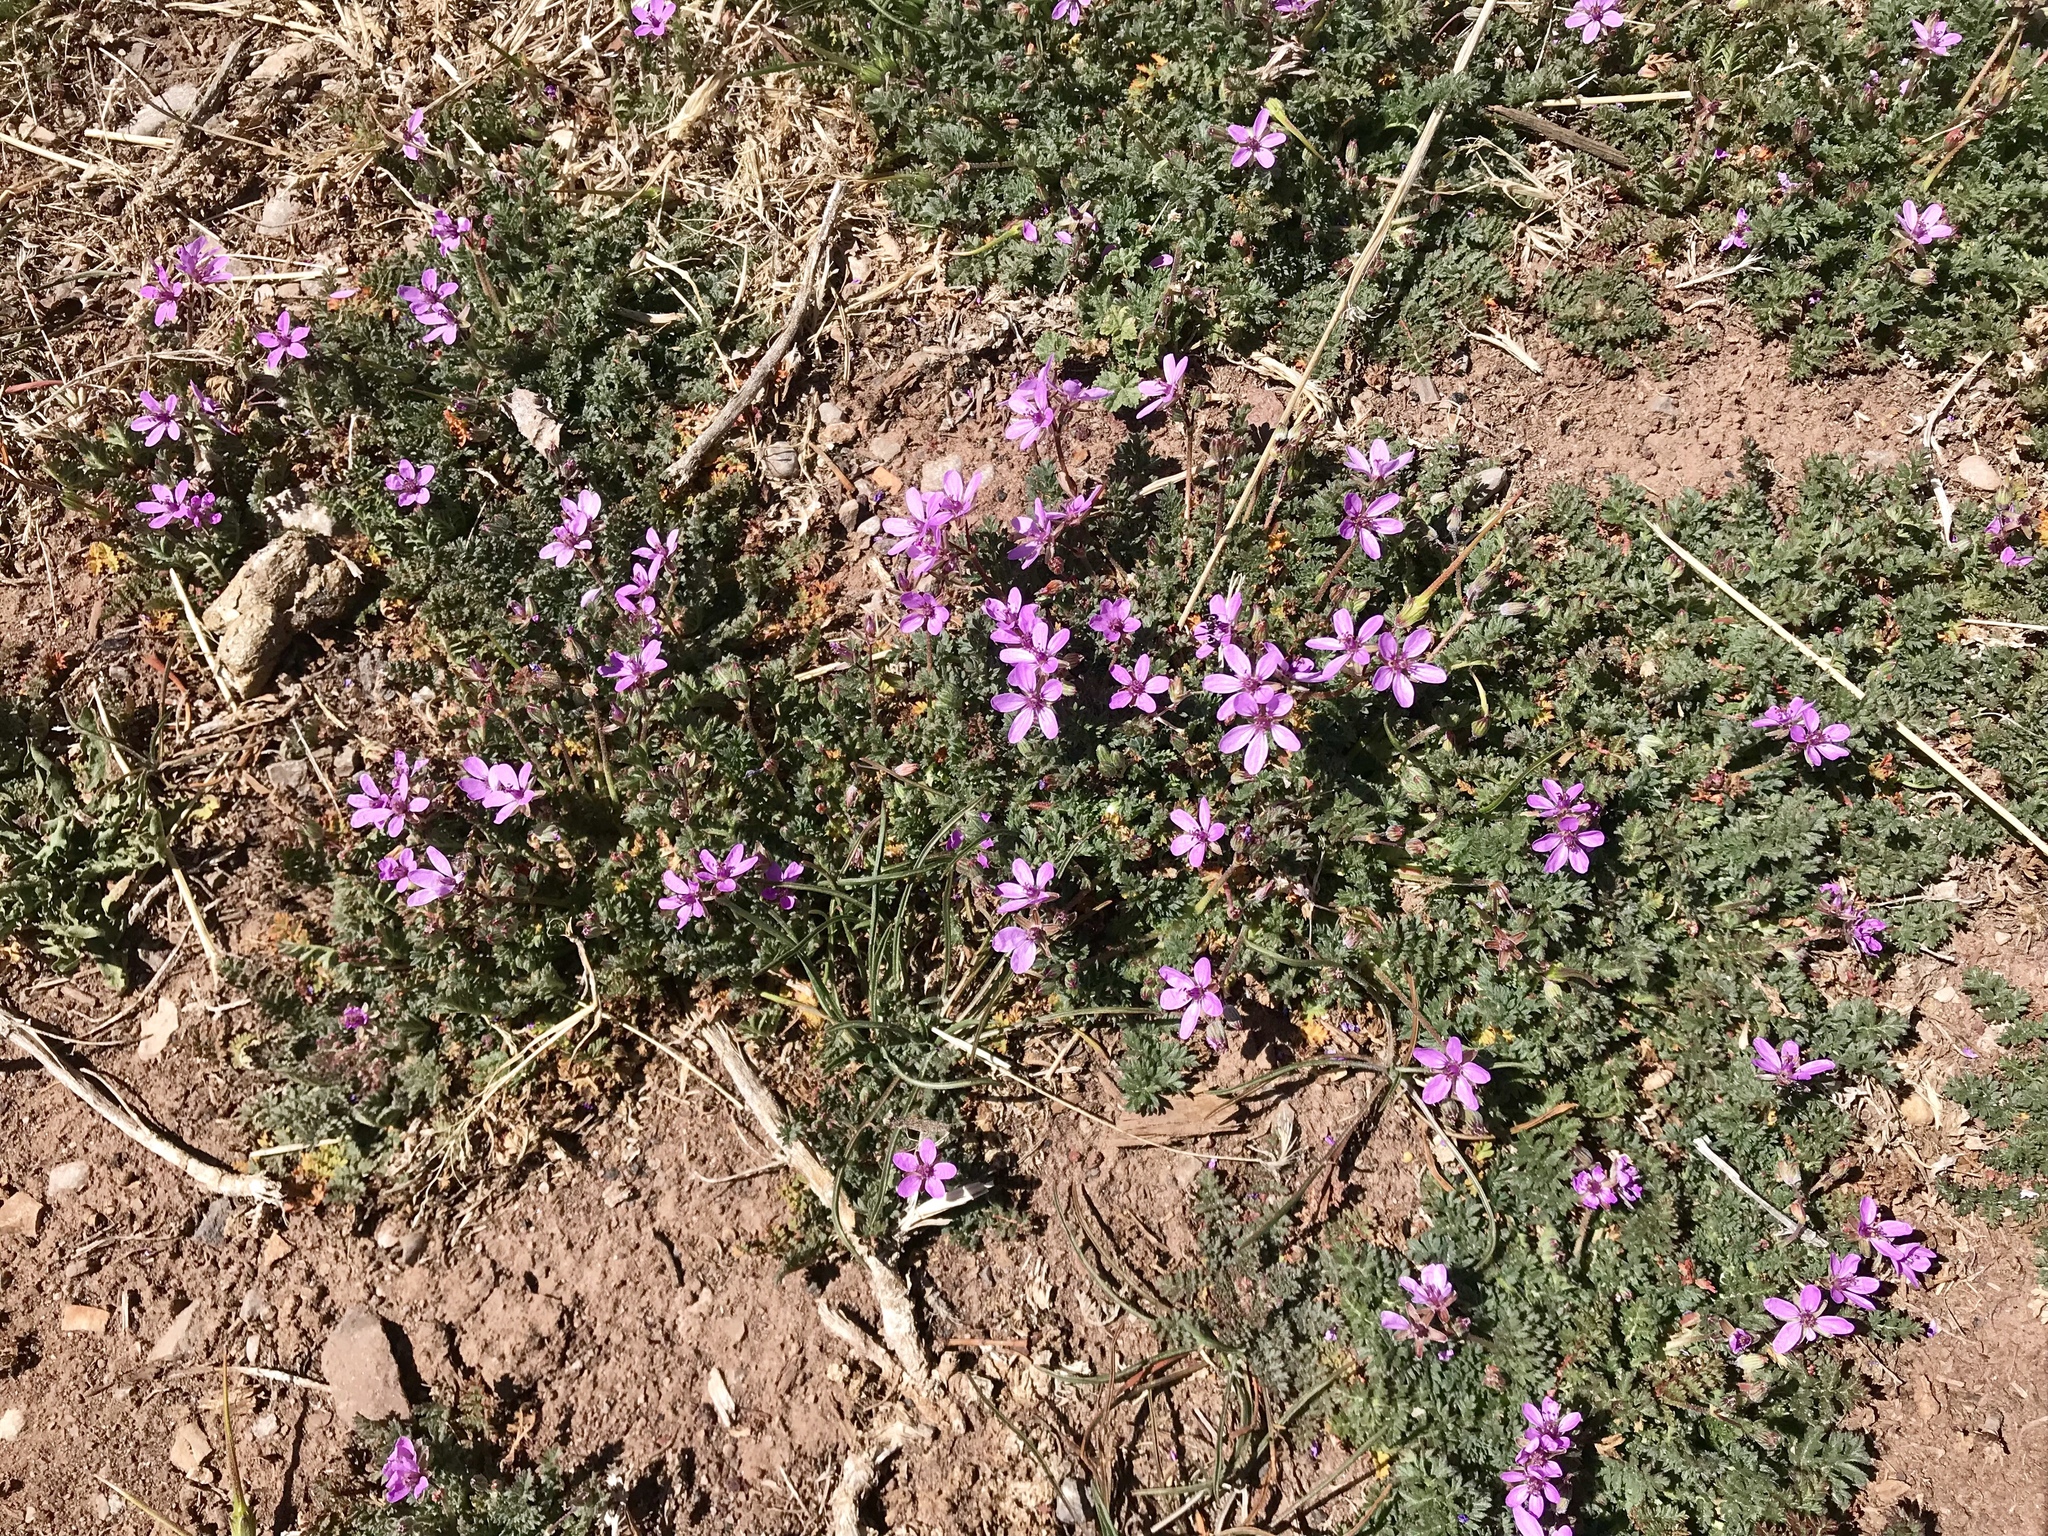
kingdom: Plantae
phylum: Tracheophyta
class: Magnoliopsida
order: Geraniales
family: Geraniaceae
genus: Erodium
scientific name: Erodium cicutarium
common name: Common stork's-bill
